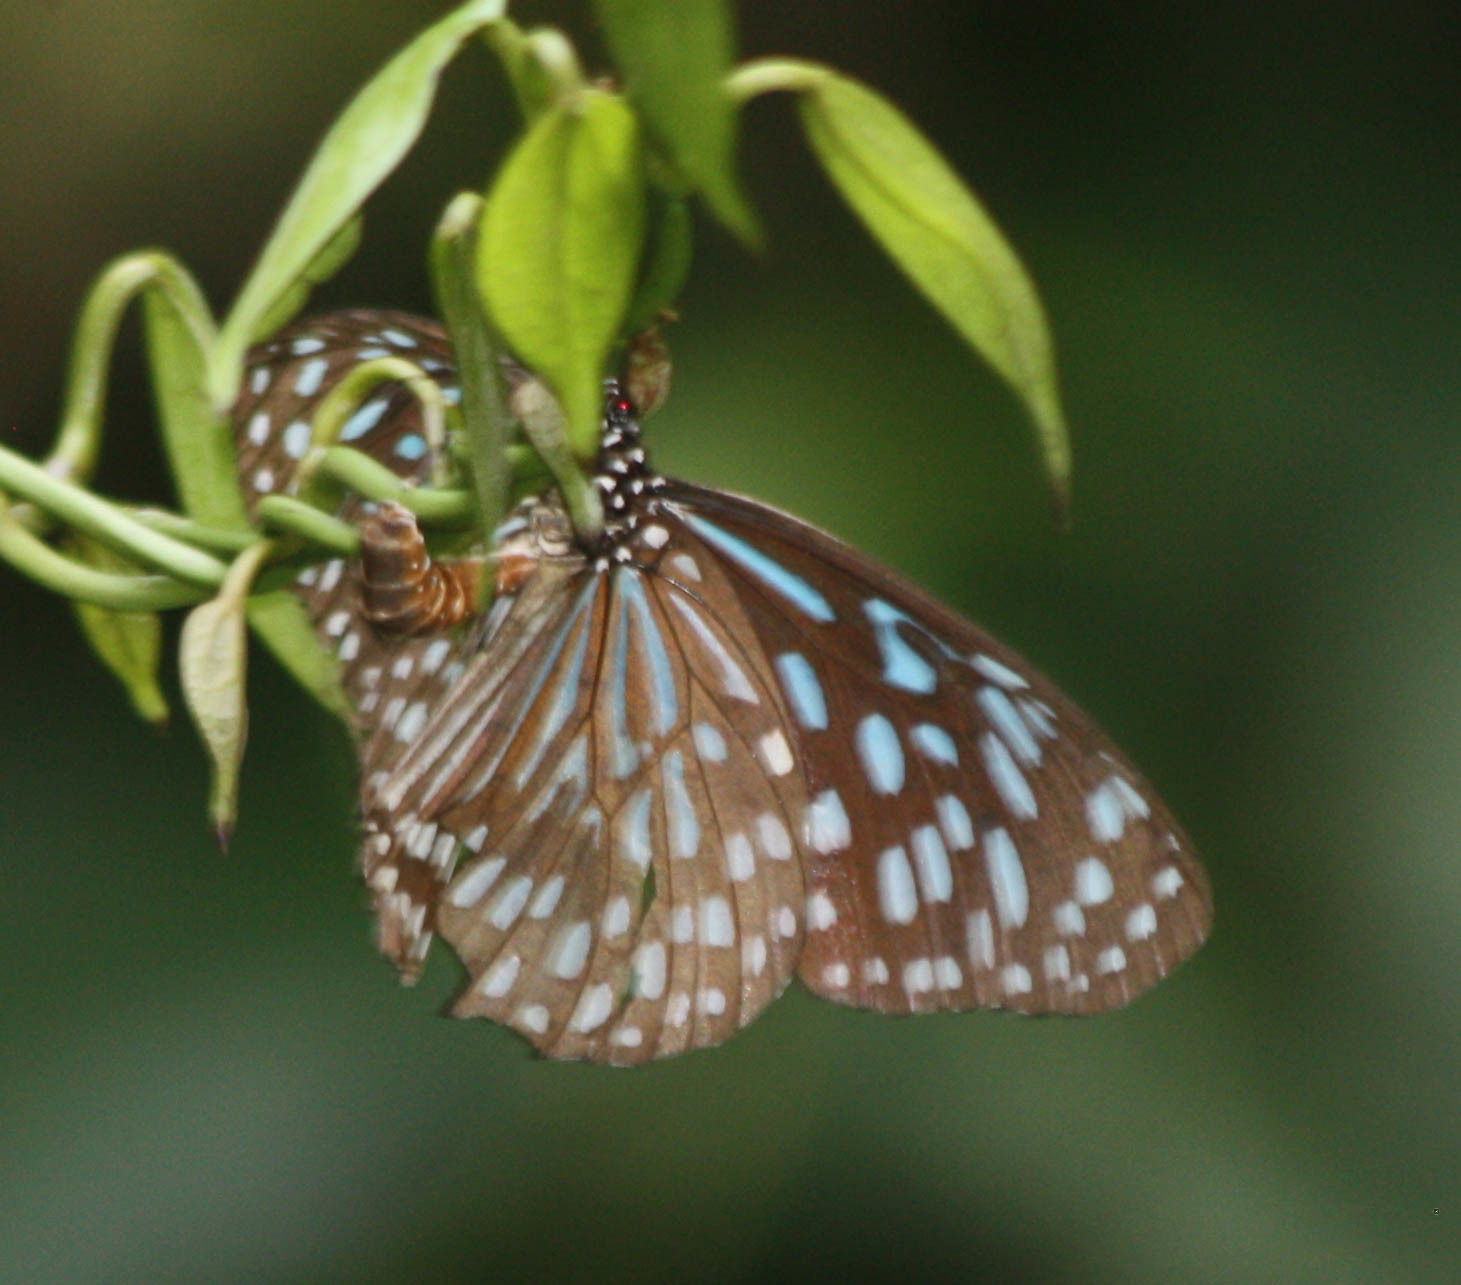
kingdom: Animalia
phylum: Arthropoda
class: Insecta
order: Lepidoptera
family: Nymphalidae
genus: Tirumala
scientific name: Tirumala septentrionis
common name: Dark blue tiger butterfly
